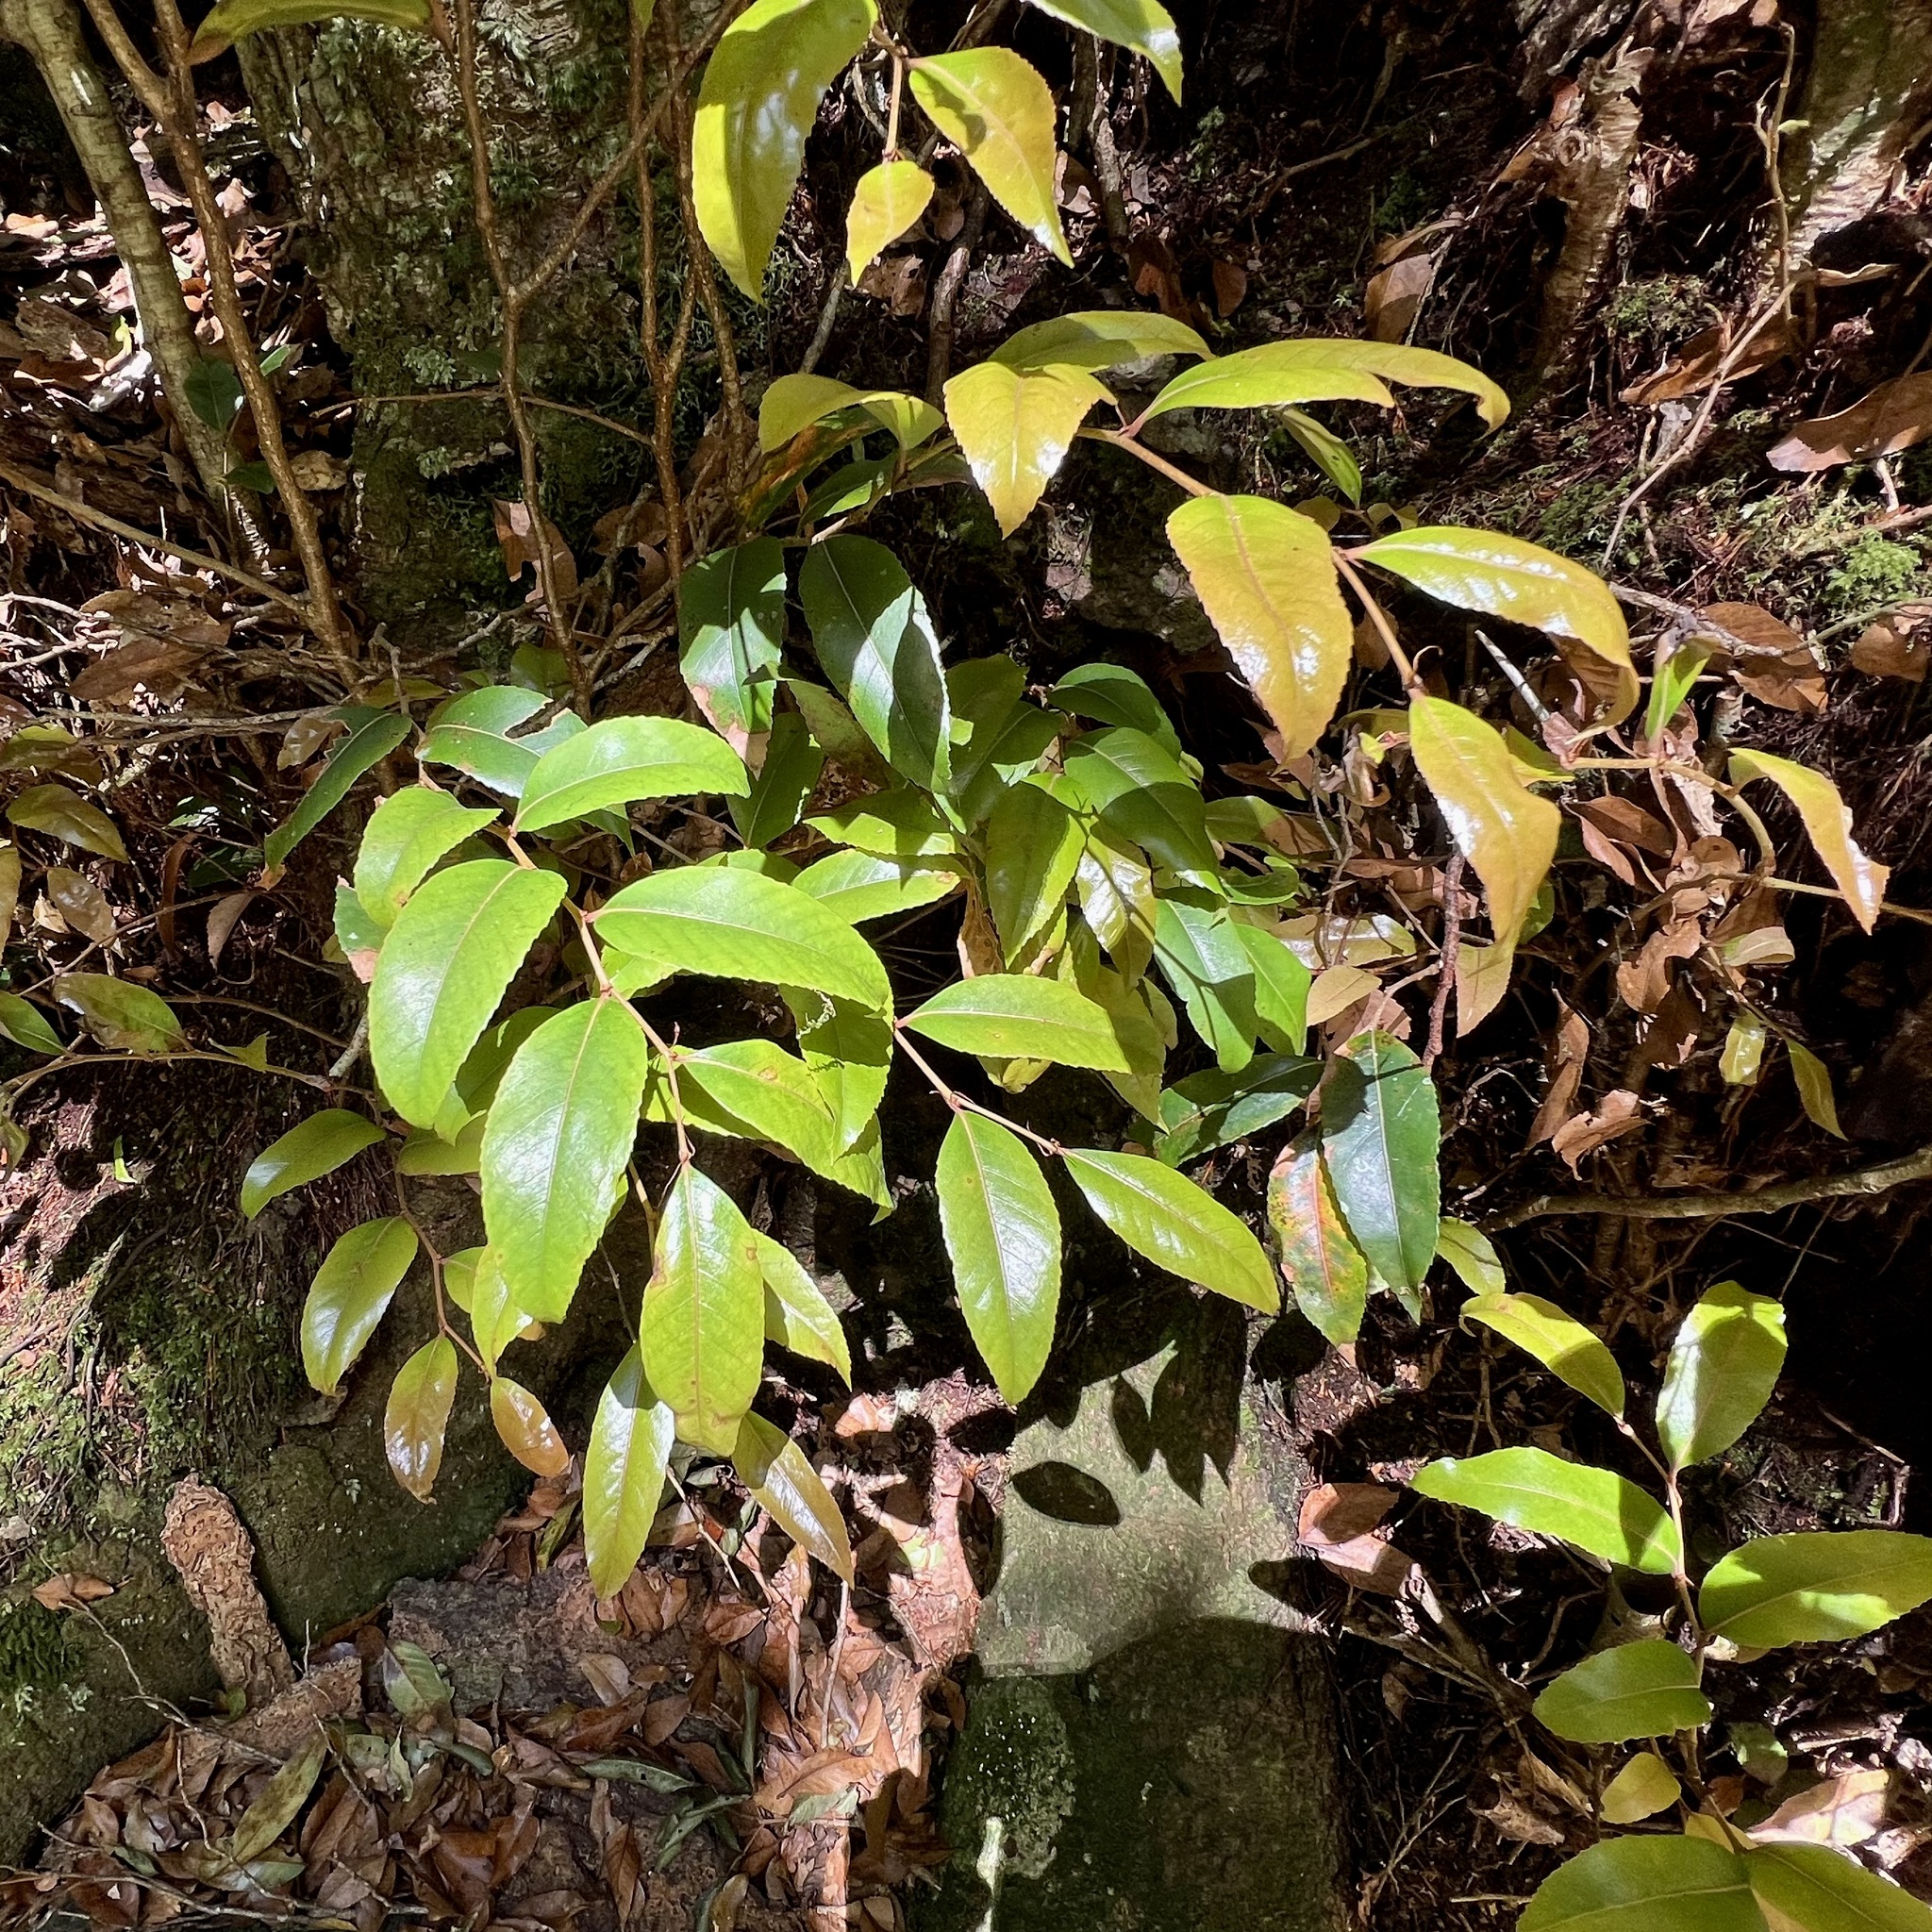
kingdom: Plantae
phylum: Tracheophyta
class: Magnoliopsida
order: Fagales
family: Nothofagaceae
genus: Nothofagus
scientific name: Nothofagus moorei
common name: Antarctic beech
